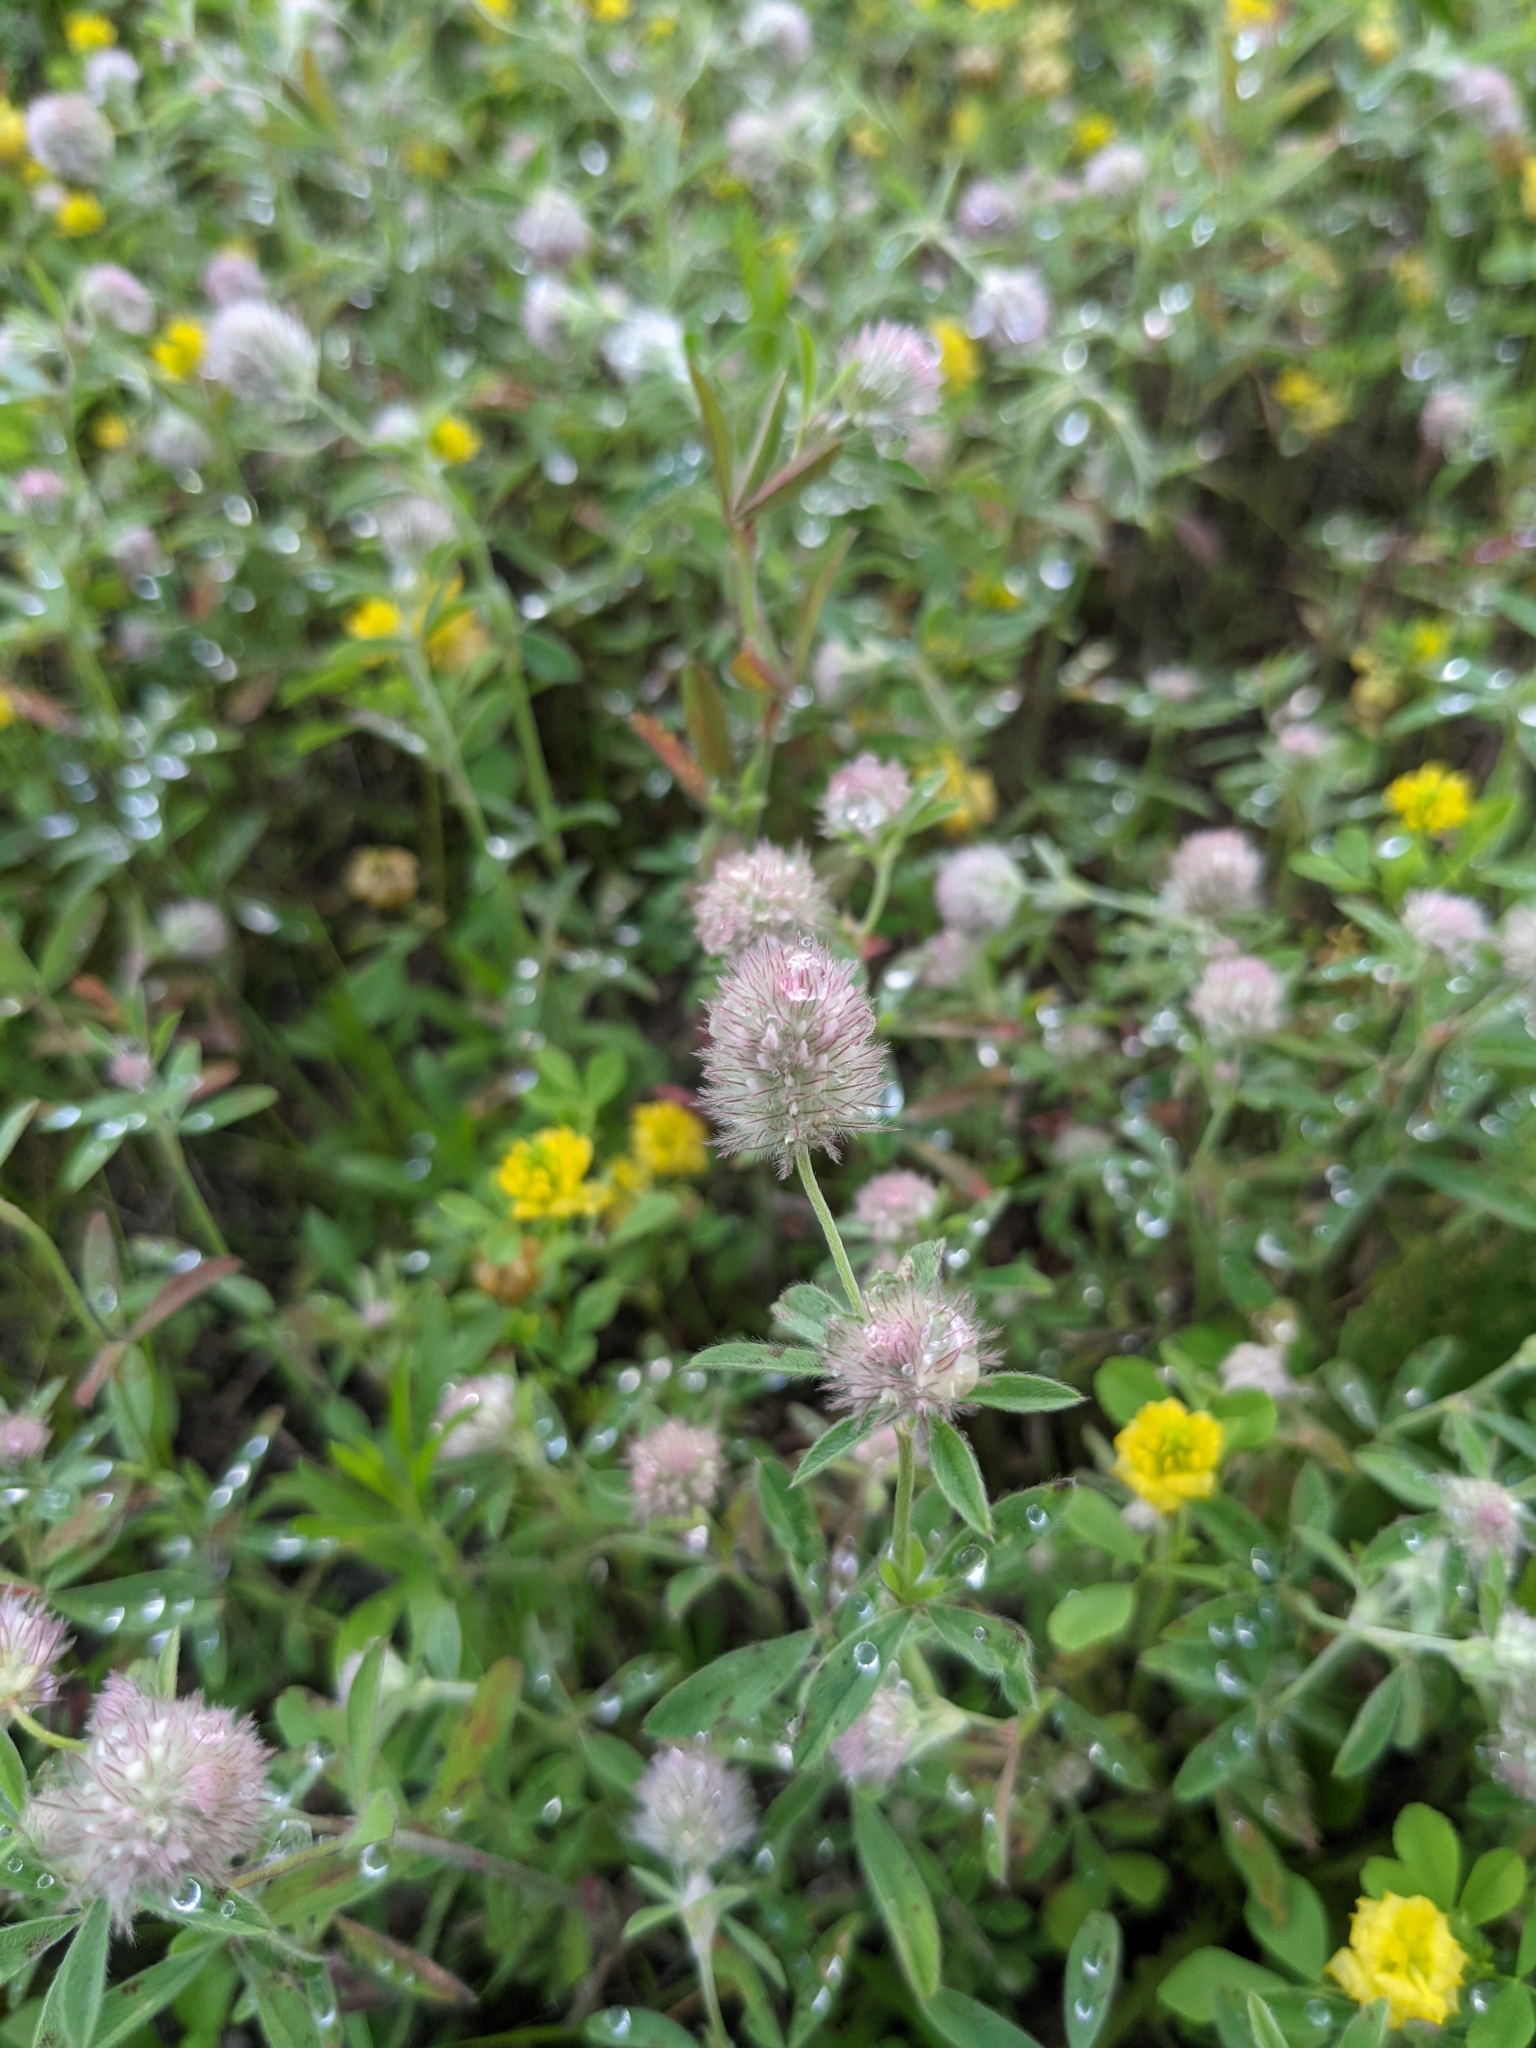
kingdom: Plantae
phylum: Tracheophyta
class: Magnoliopsida
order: Fabales
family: Fabaceae
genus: Trifolium
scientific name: Trifolium arvense
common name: Hare's-foot clover
